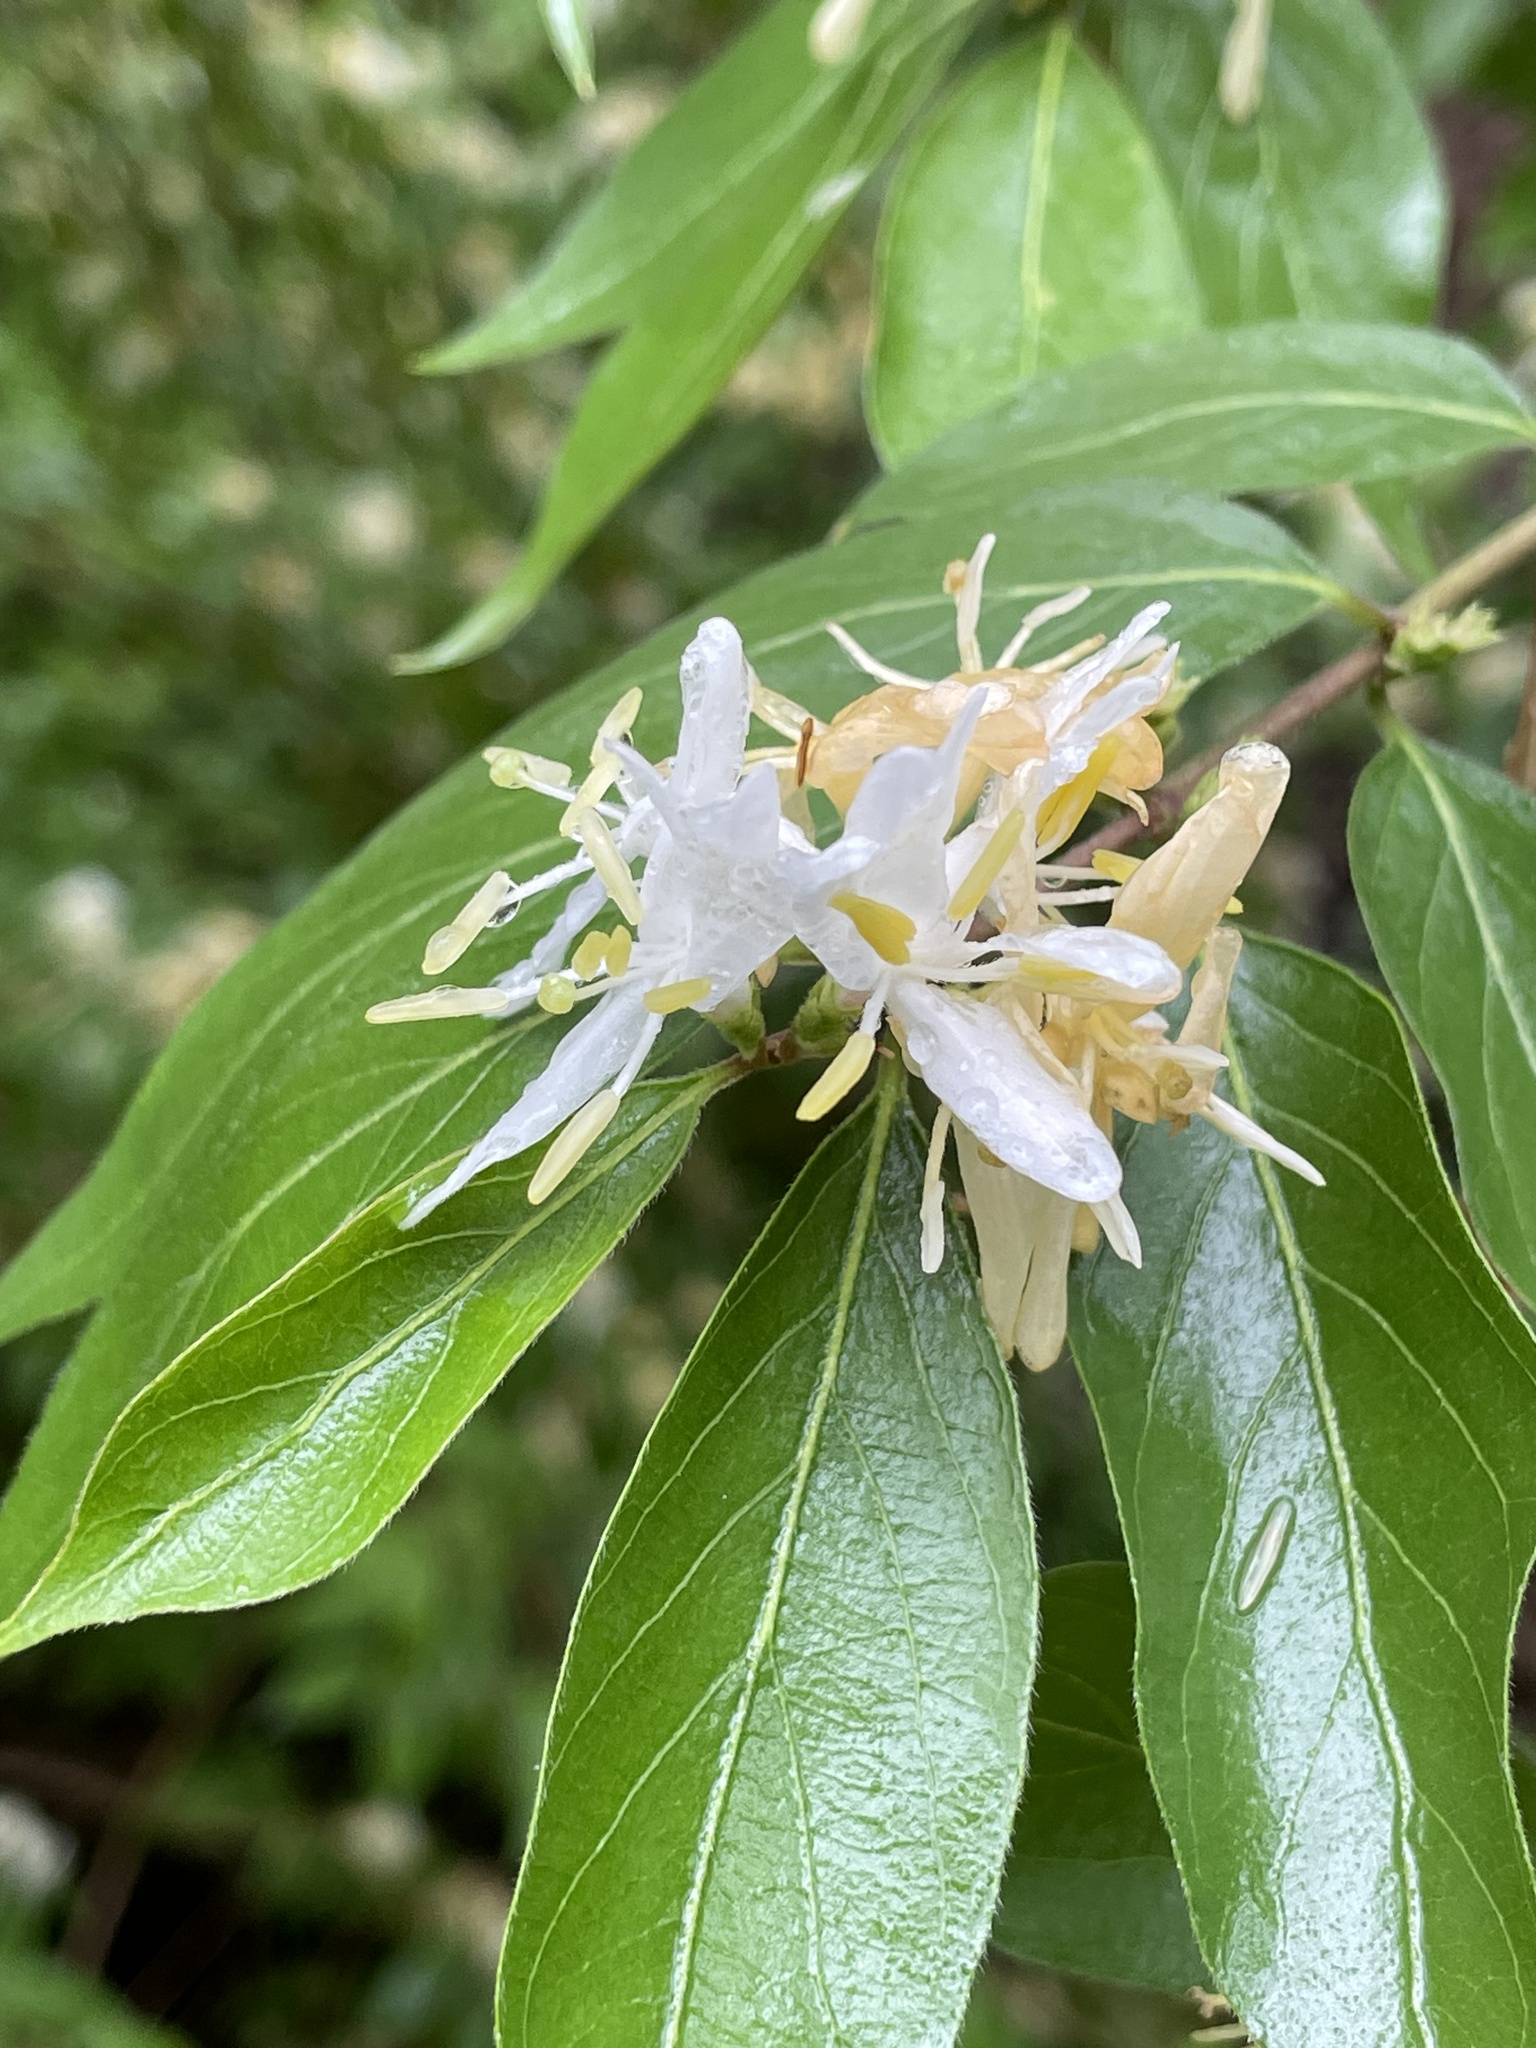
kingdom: Plantae
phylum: Tracheophyta
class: Magnoliopsida
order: Dipsacales
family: Caprifoliaceae
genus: Lonicera
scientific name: Lonicera maackii
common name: Amur honeysuckle
